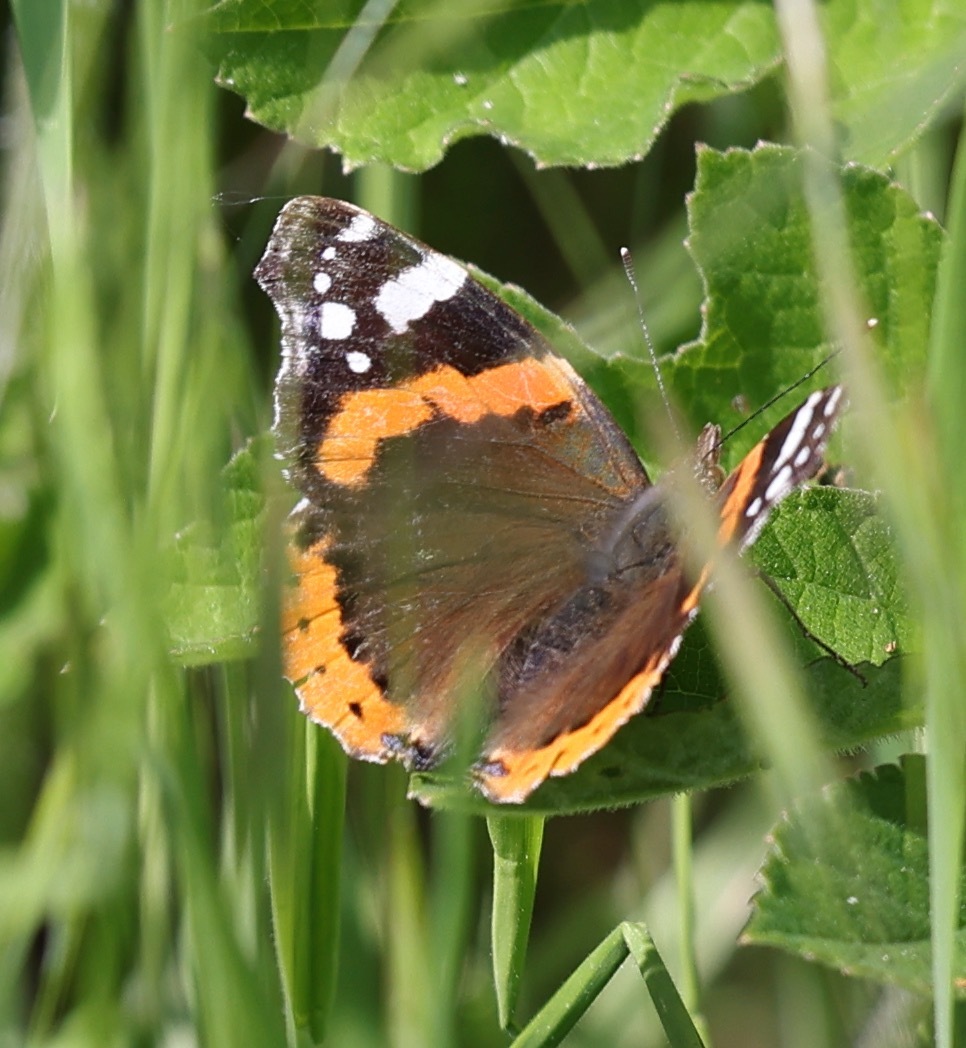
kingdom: Animalia
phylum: Arthropoda
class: Insecta
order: Lepidoptera
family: Nymphalidae
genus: Vanessa
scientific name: Vanessa atalanta
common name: Red admiral
